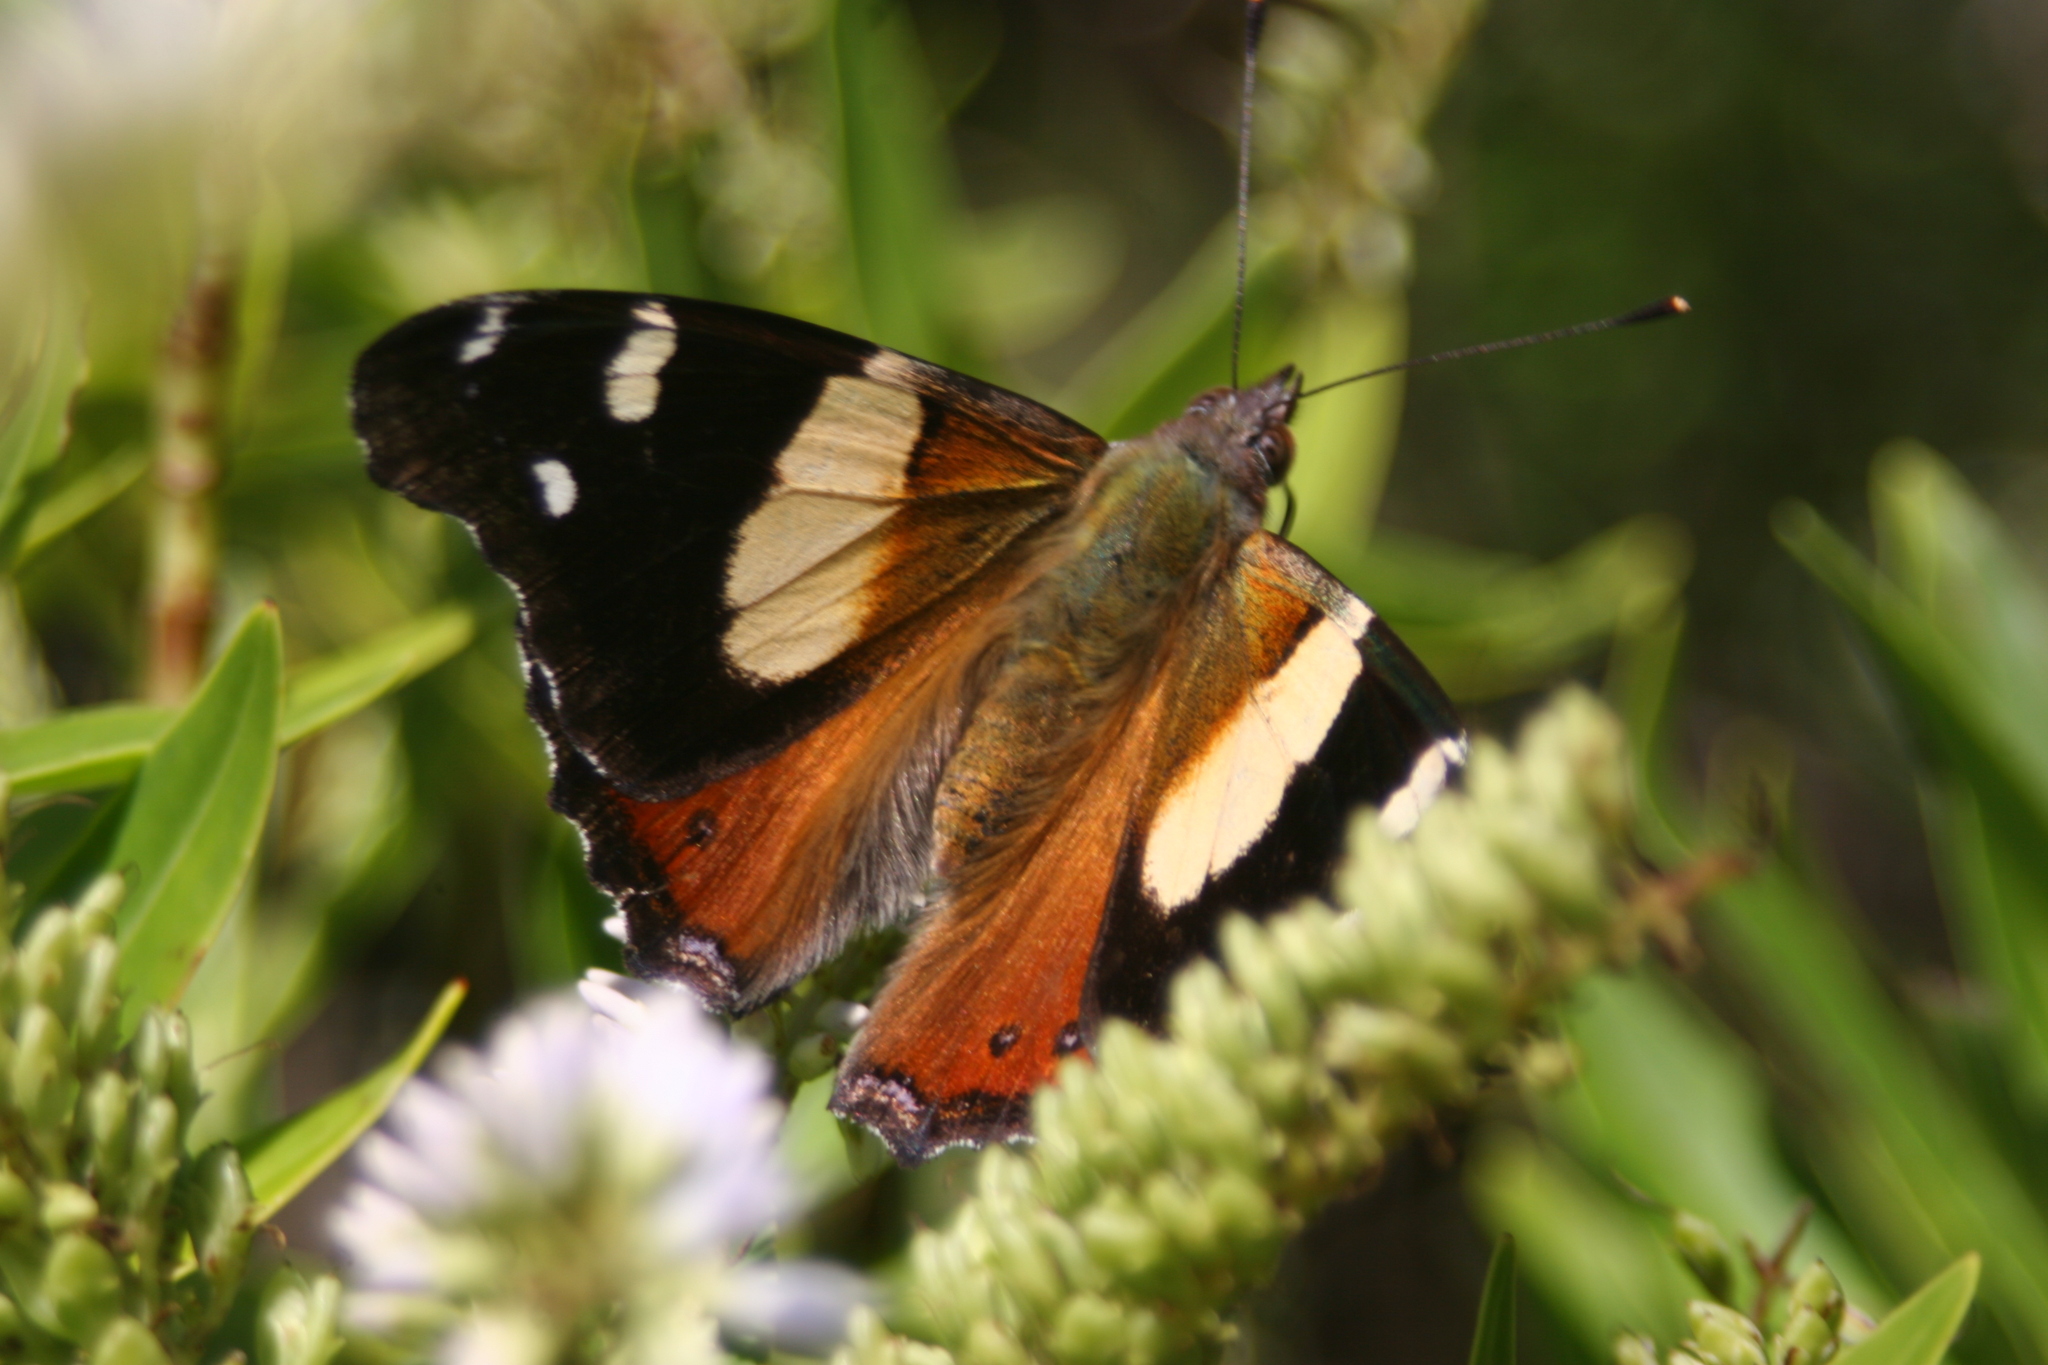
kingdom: Animalia
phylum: Arthropoda
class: Insecta
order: Lepidoptera
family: Nymphalidae
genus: Vanessa
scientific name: Vanessa itea
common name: Yellow admiral
